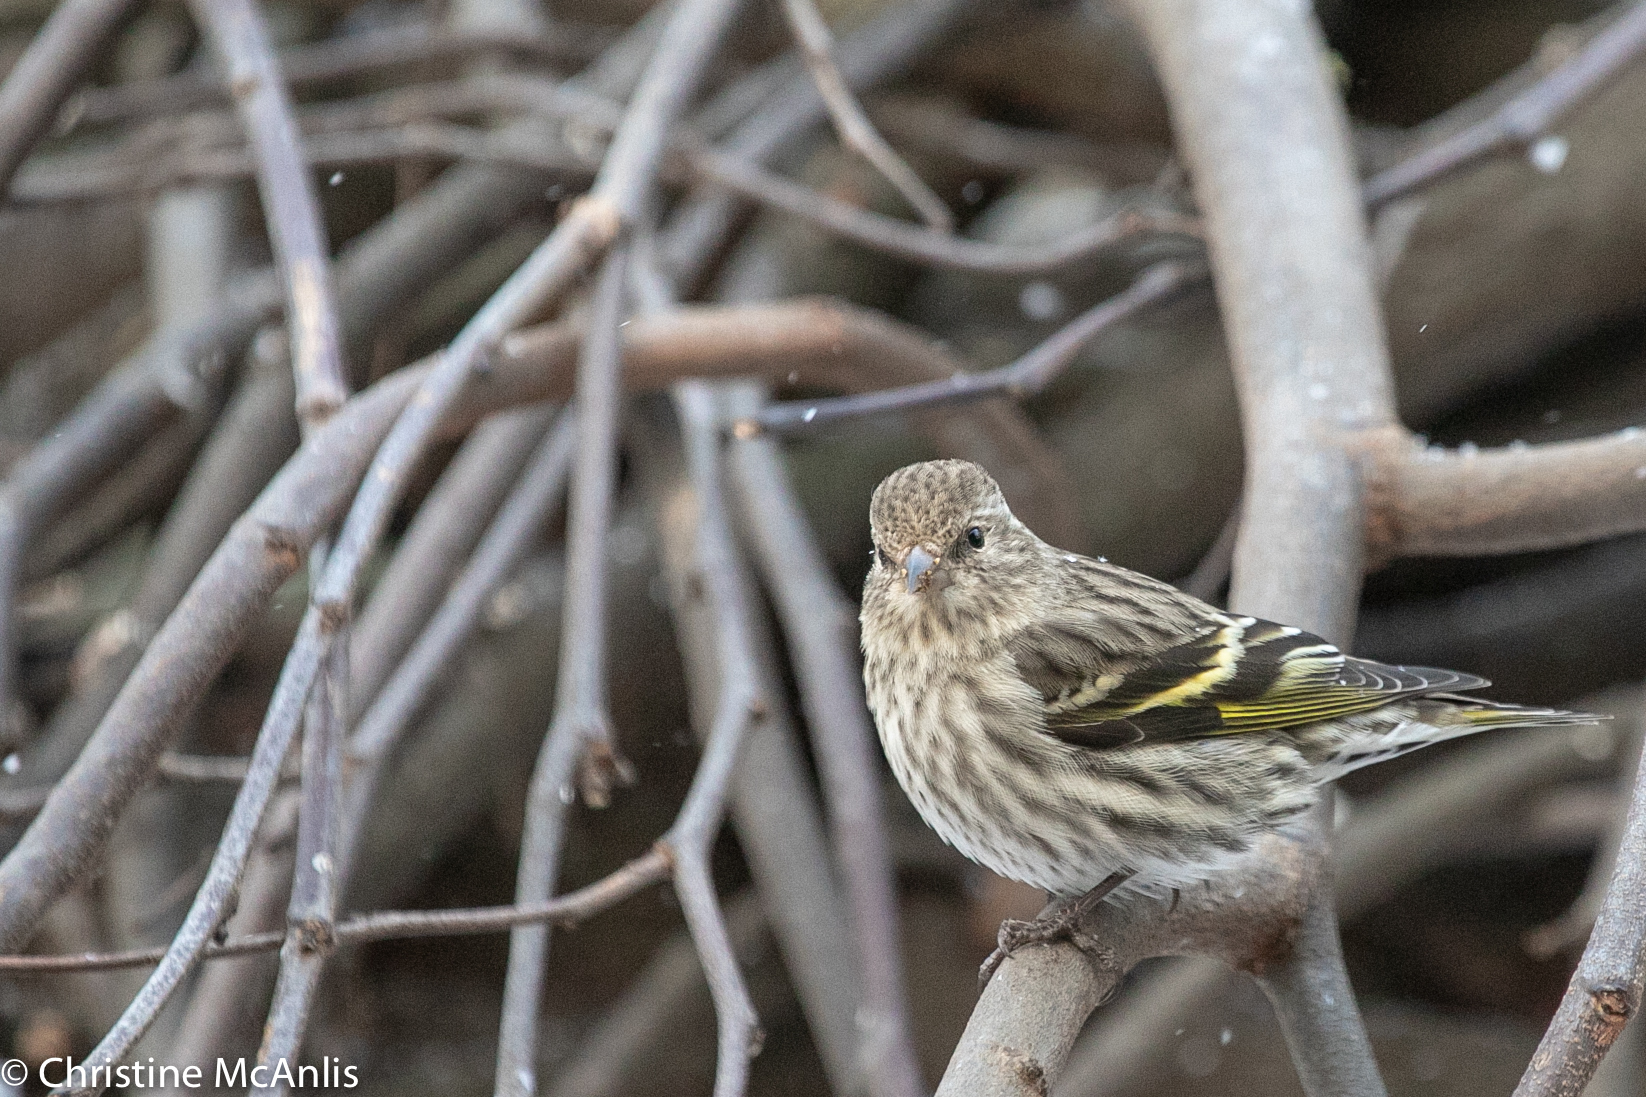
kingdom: Animalia
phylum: Chordata
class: Aves
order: Passeriformes
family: Fringillidae
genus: Spinus
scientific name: Spinus pinus
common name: Pine siskin
